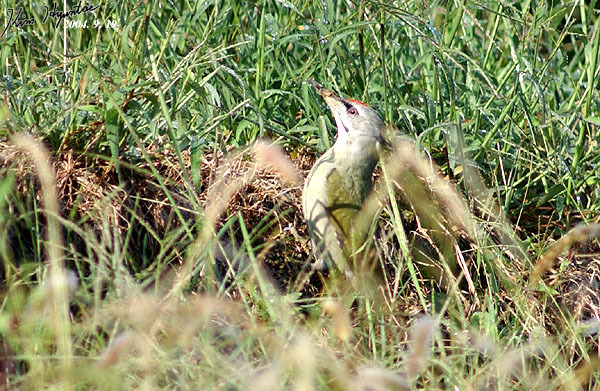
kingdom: Animalia
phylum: Chordata
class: Aves
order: Piciformes
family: Picidae
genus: Picus
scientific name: Picus canus
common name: Grey-headed woodpecker
